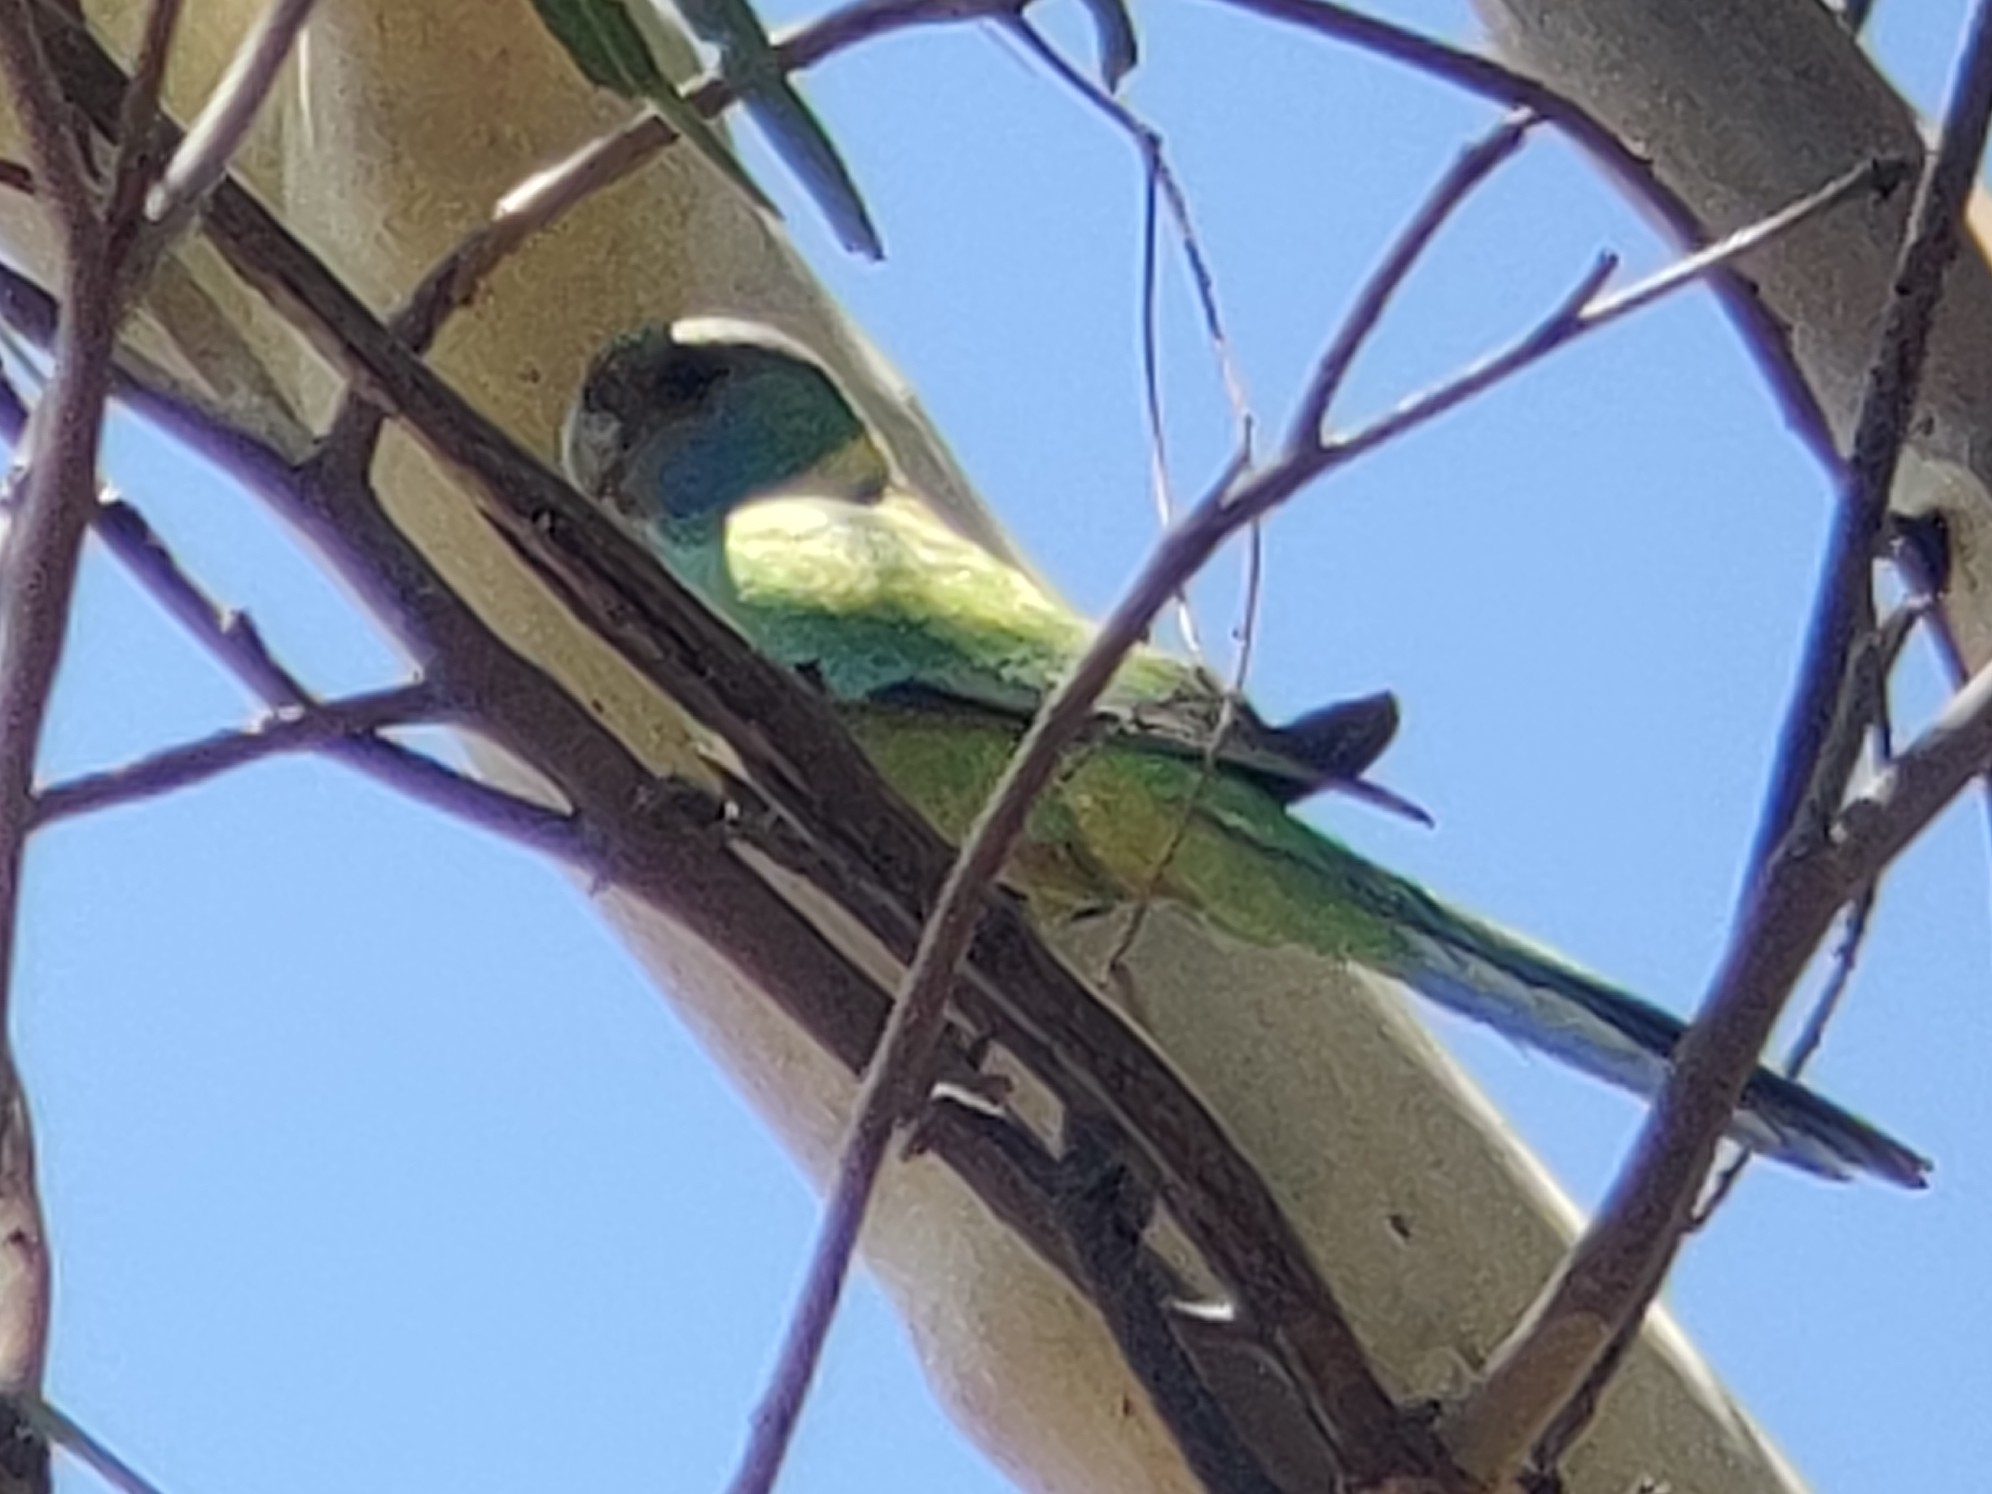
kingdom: Animalia
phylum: Chordata
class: Aves
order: Psittaciformes
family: Psittacidae
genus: Barnardius
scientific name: Barnardius zonarius
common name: Australian ringneck
